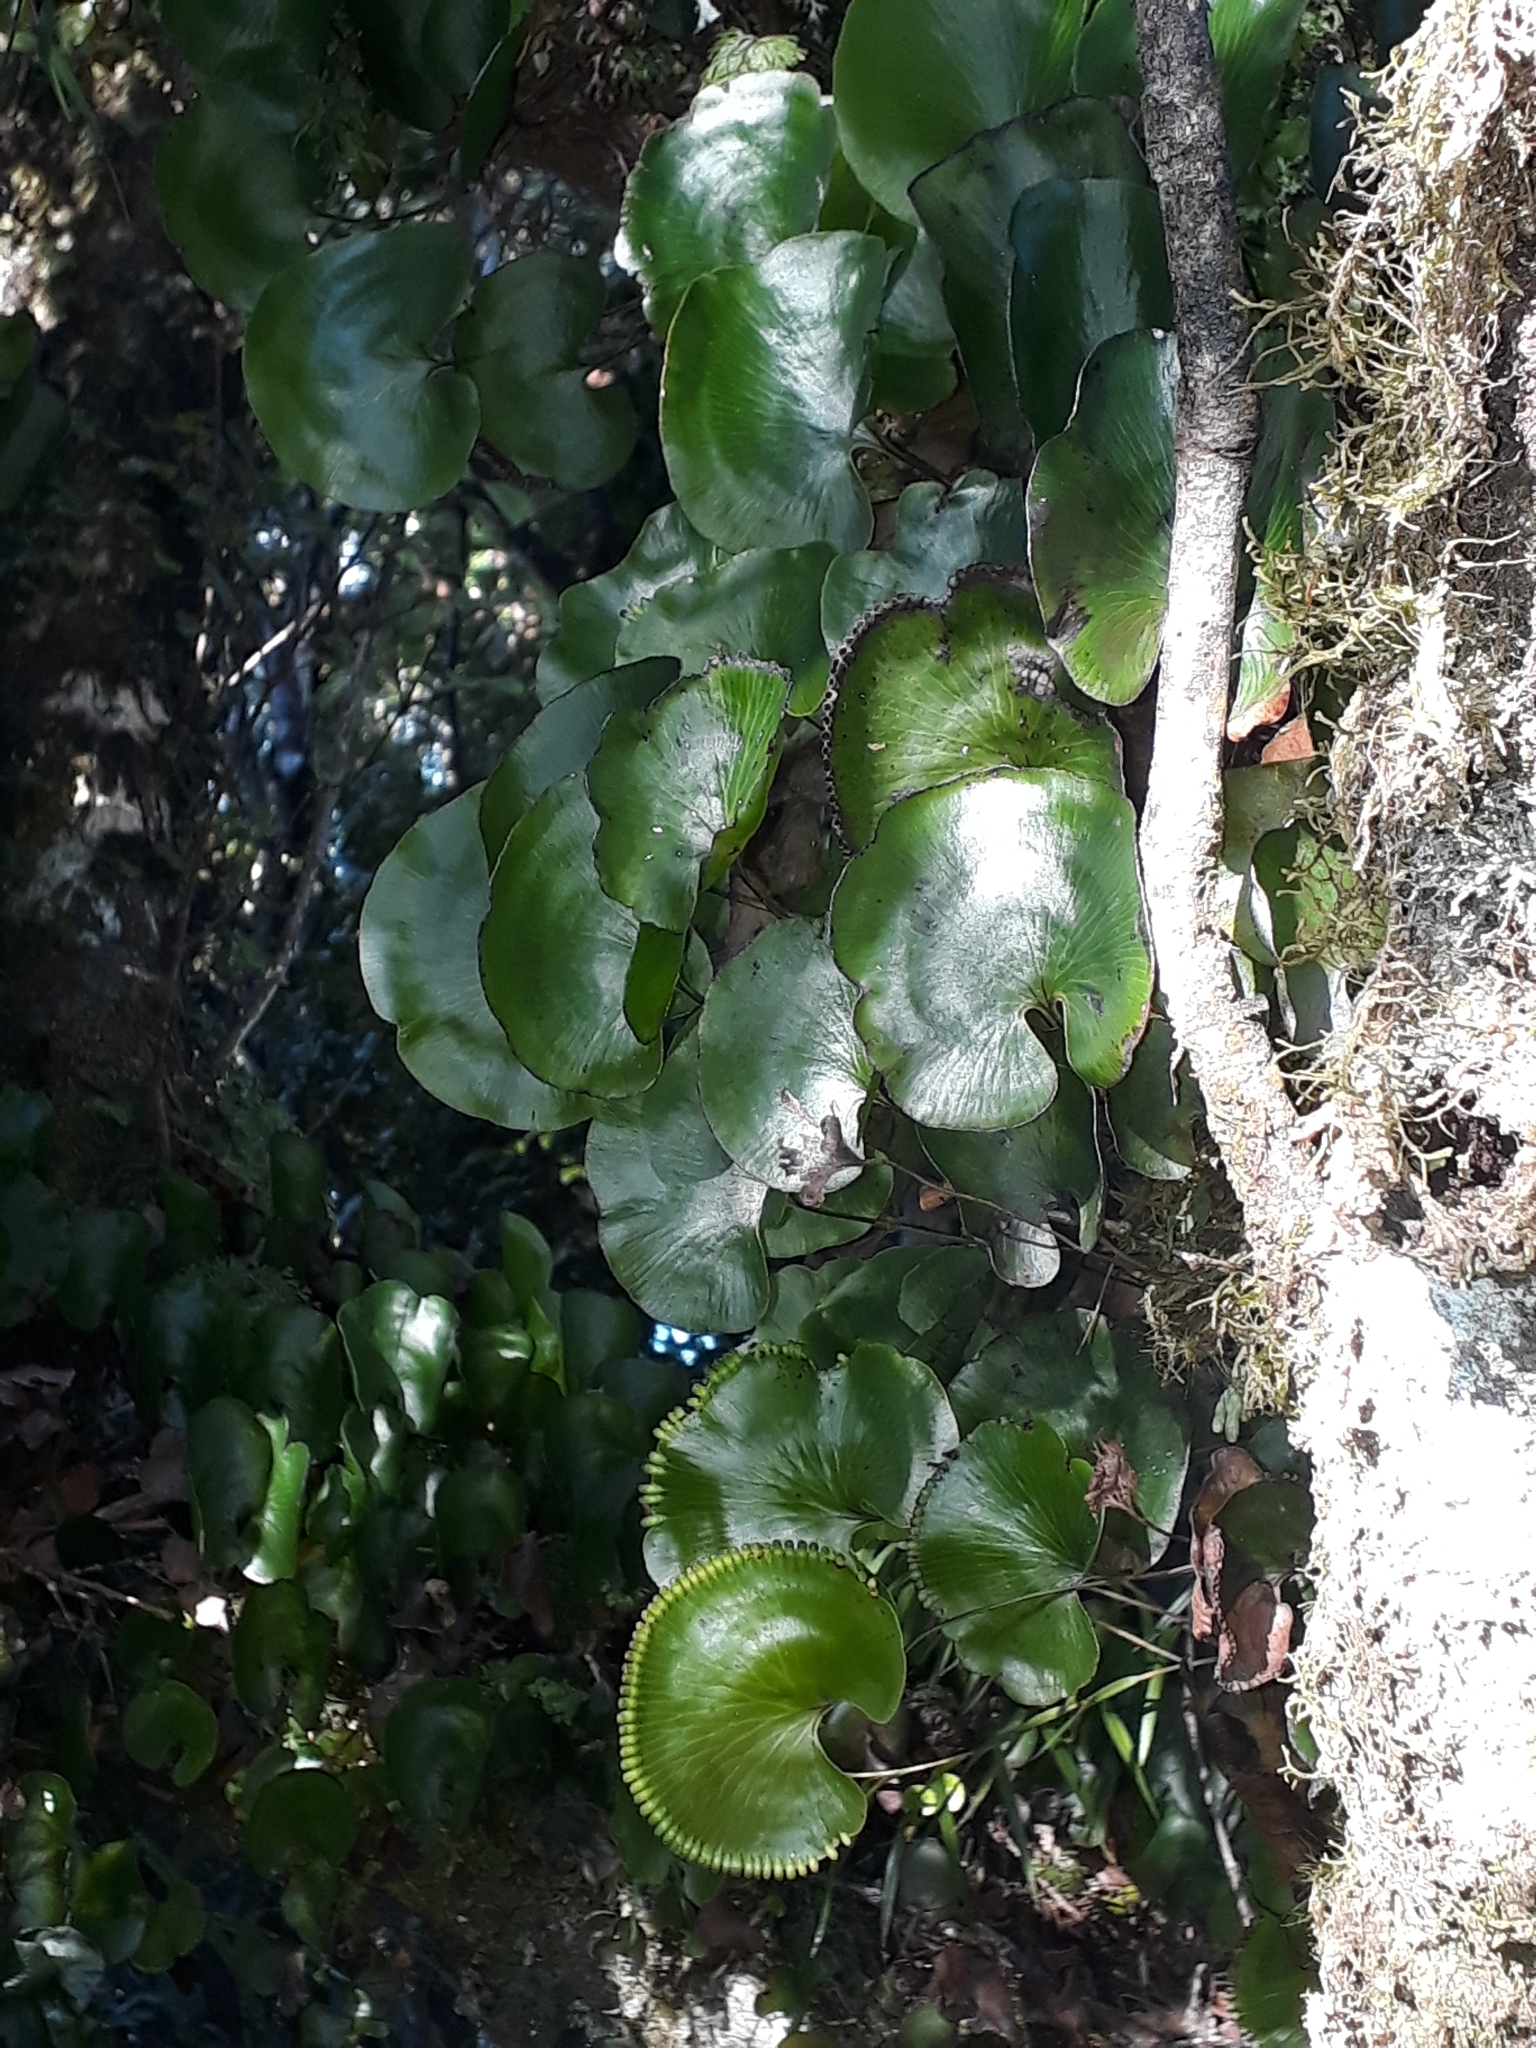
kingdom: Plantae
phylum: Tracheophyta
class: Polypodiopsida
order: Hymenophyllales
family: Hymenophyllaceae
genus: Hymenophyllum
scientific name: Hymenophyllum nephrophyllum
